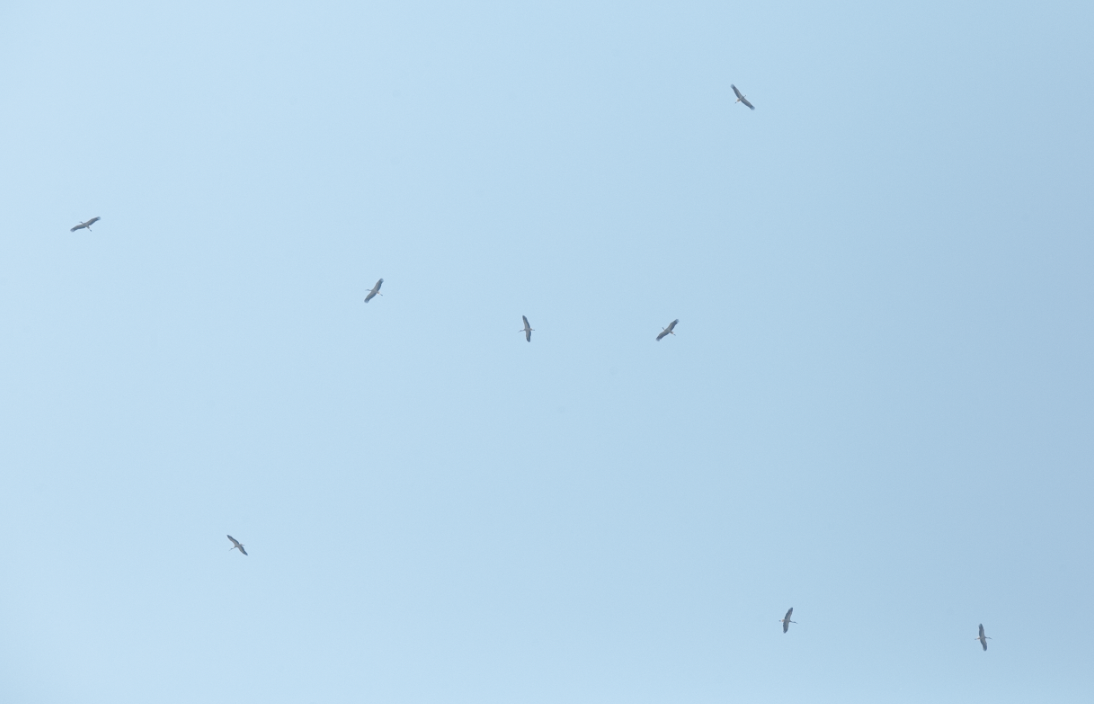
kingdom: Animalia
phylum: Chordata
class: Aves
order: Ciconiiformes
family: Ciconiidae
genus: Ciconia
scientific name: Ciconia ciconia
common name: White stork
